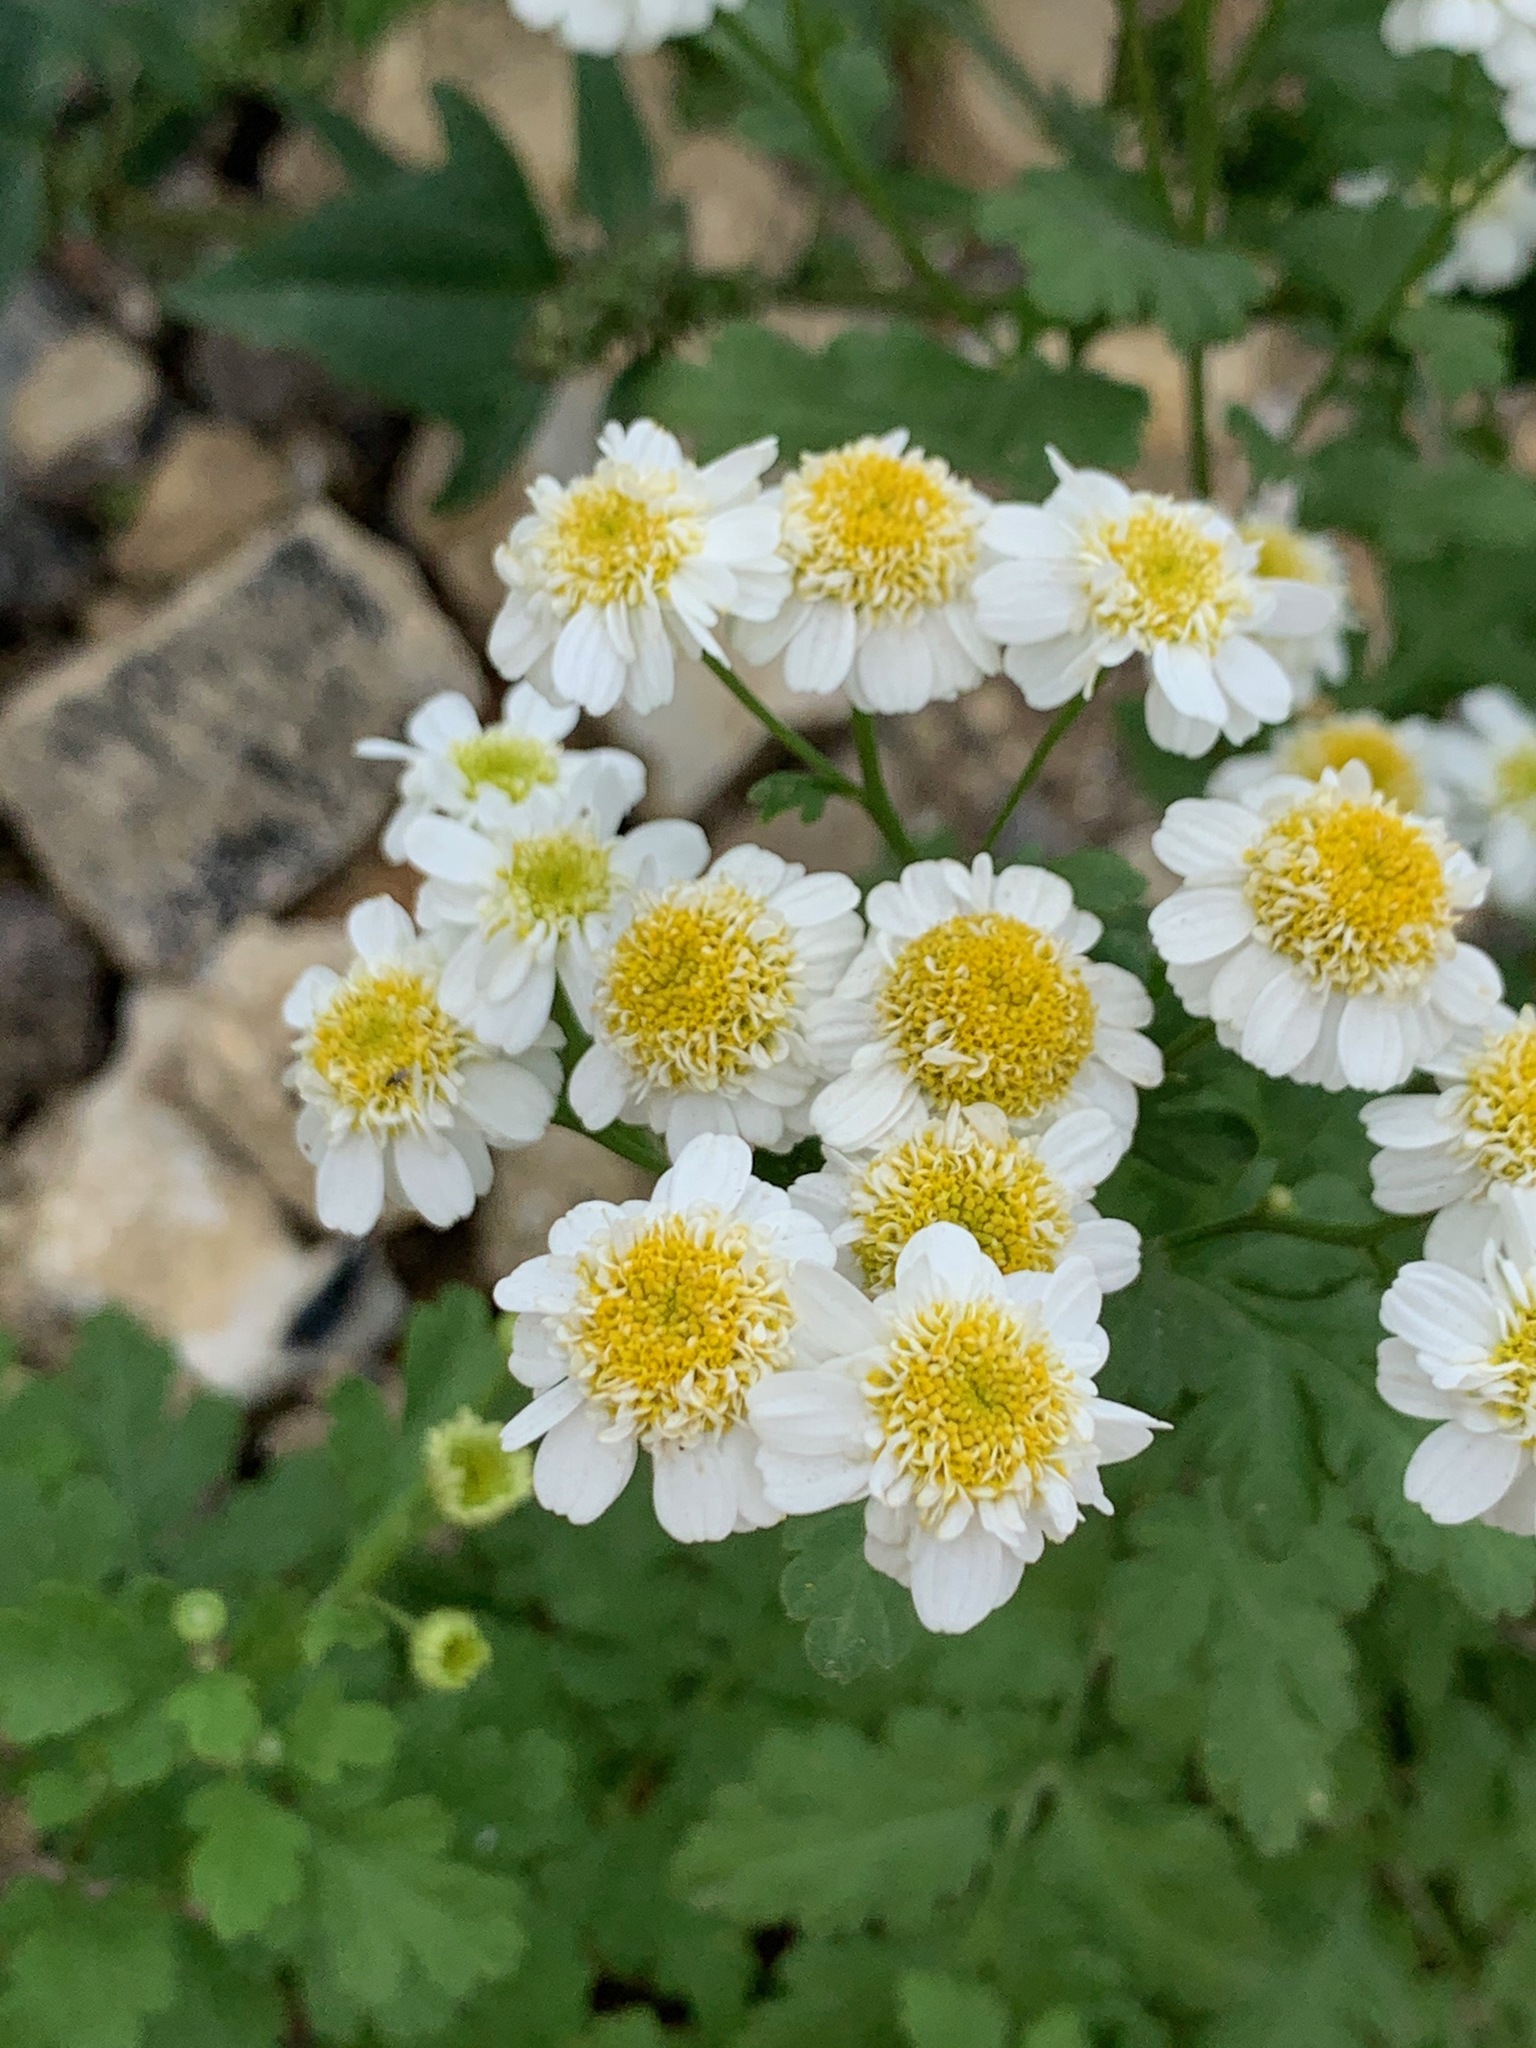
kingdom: Plantae
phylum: Tracheophyta
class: Magnoliopsida
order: Asterales
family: Asteraceae
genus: Tanacetum
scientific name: Tanacetum parthenium
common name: Feverfew
